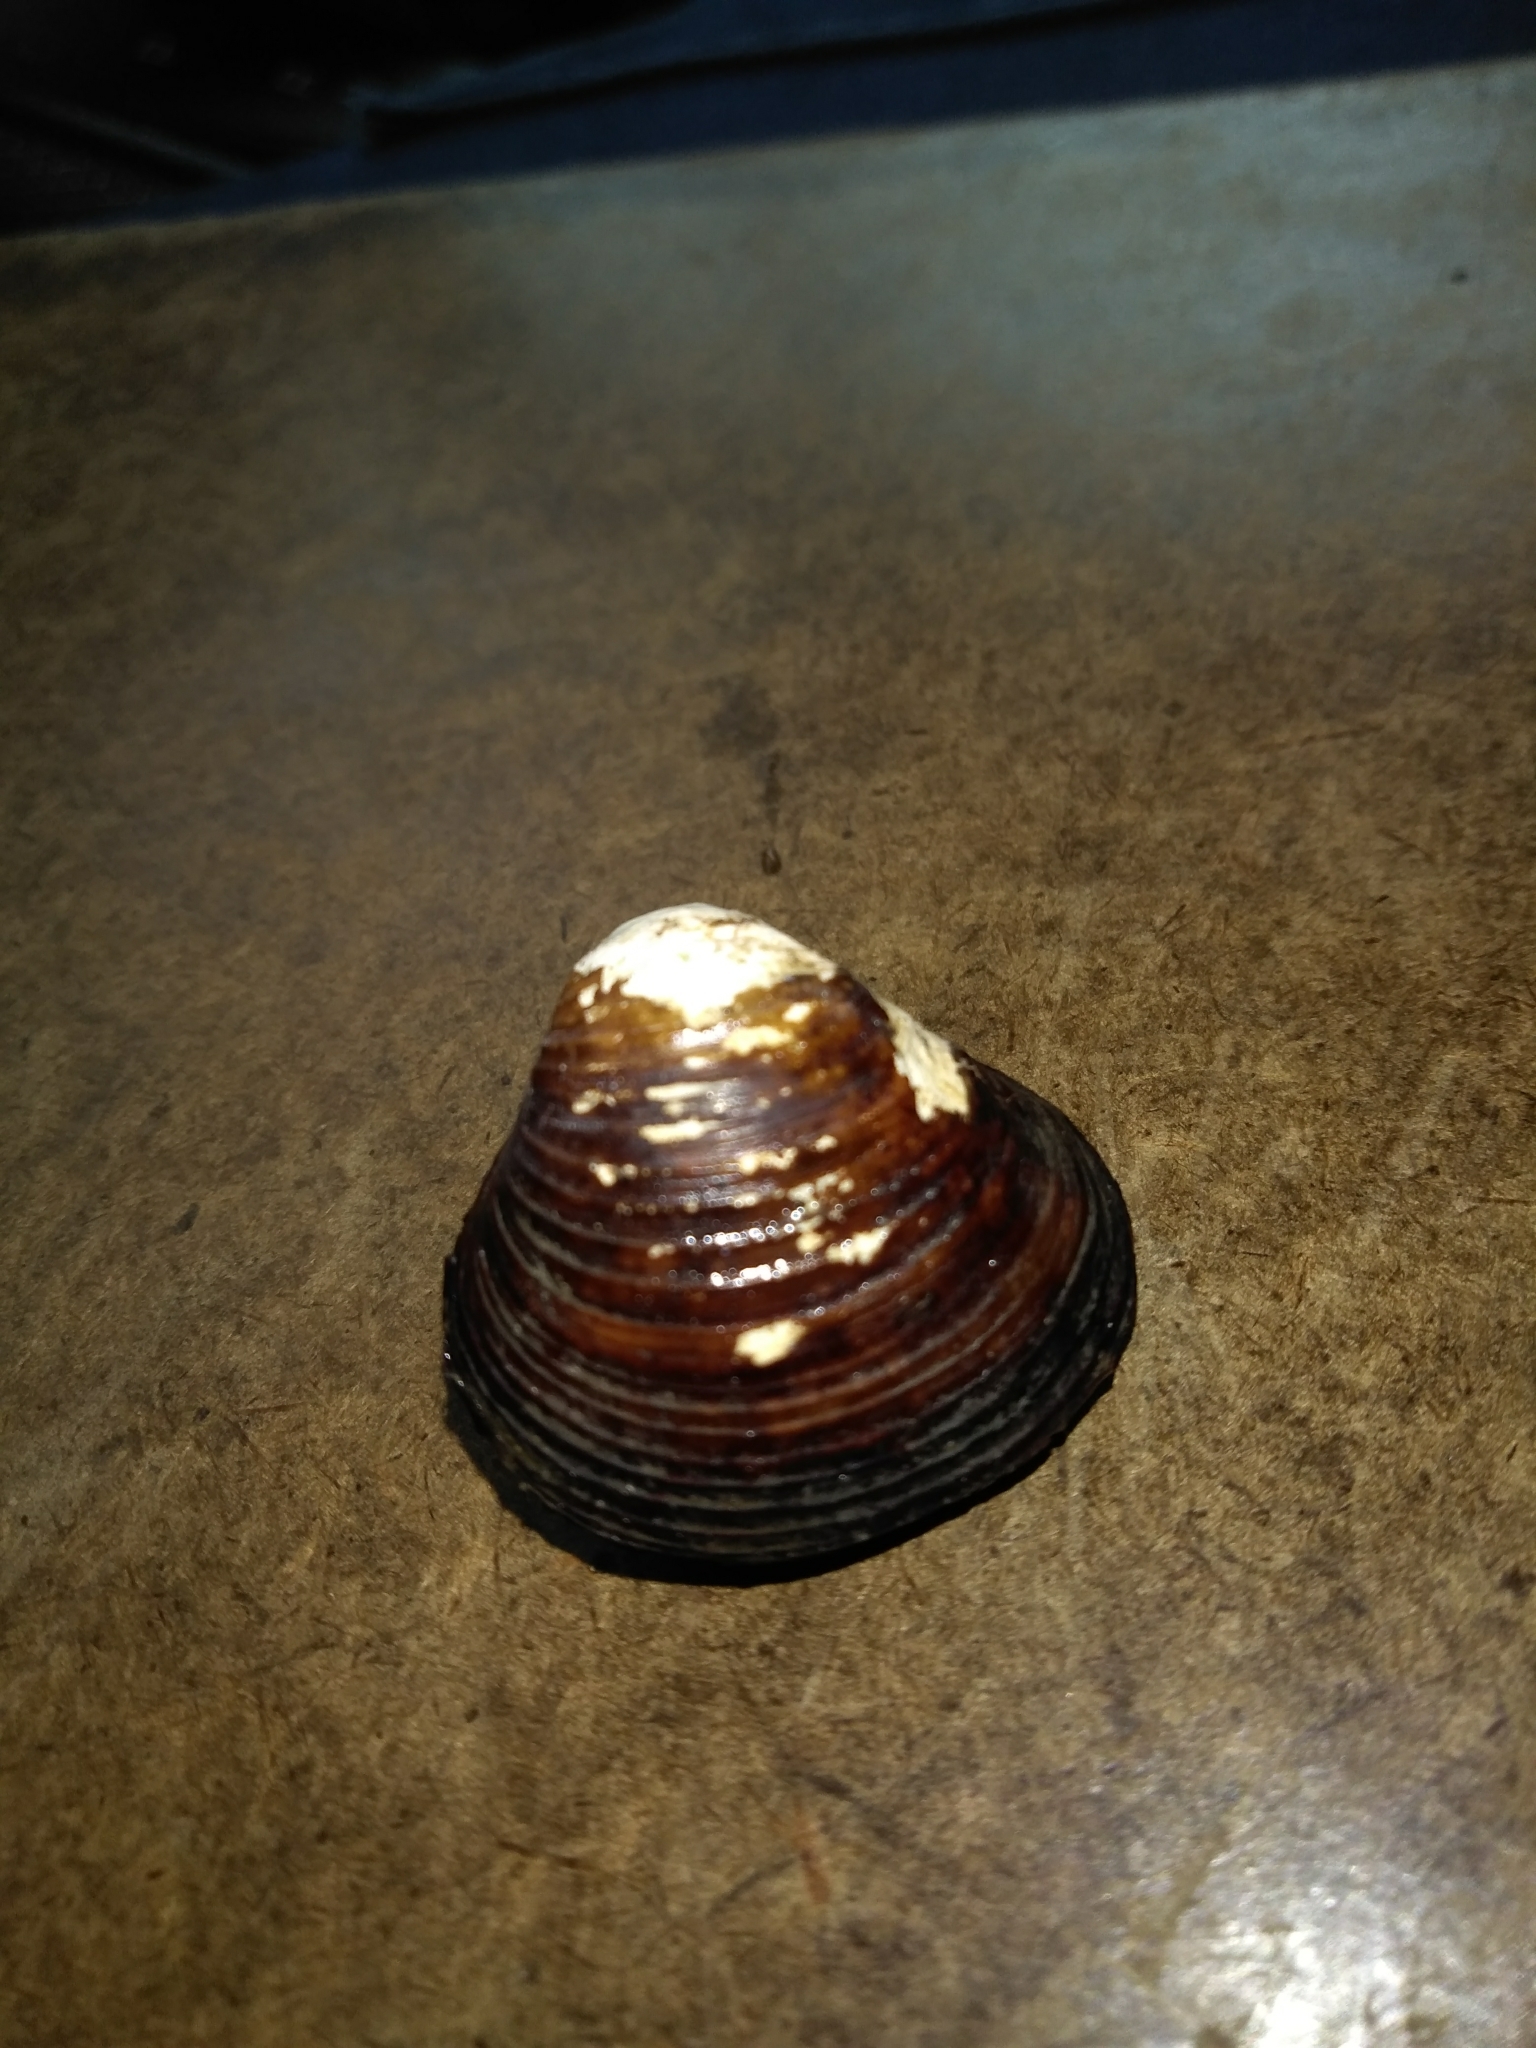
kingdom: Animalia
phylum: Mollusca
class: Bivalvia
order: Venerida
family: Cyrenidae
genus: Corbicula
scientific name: Corbicula fluminea
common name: Asian clam
